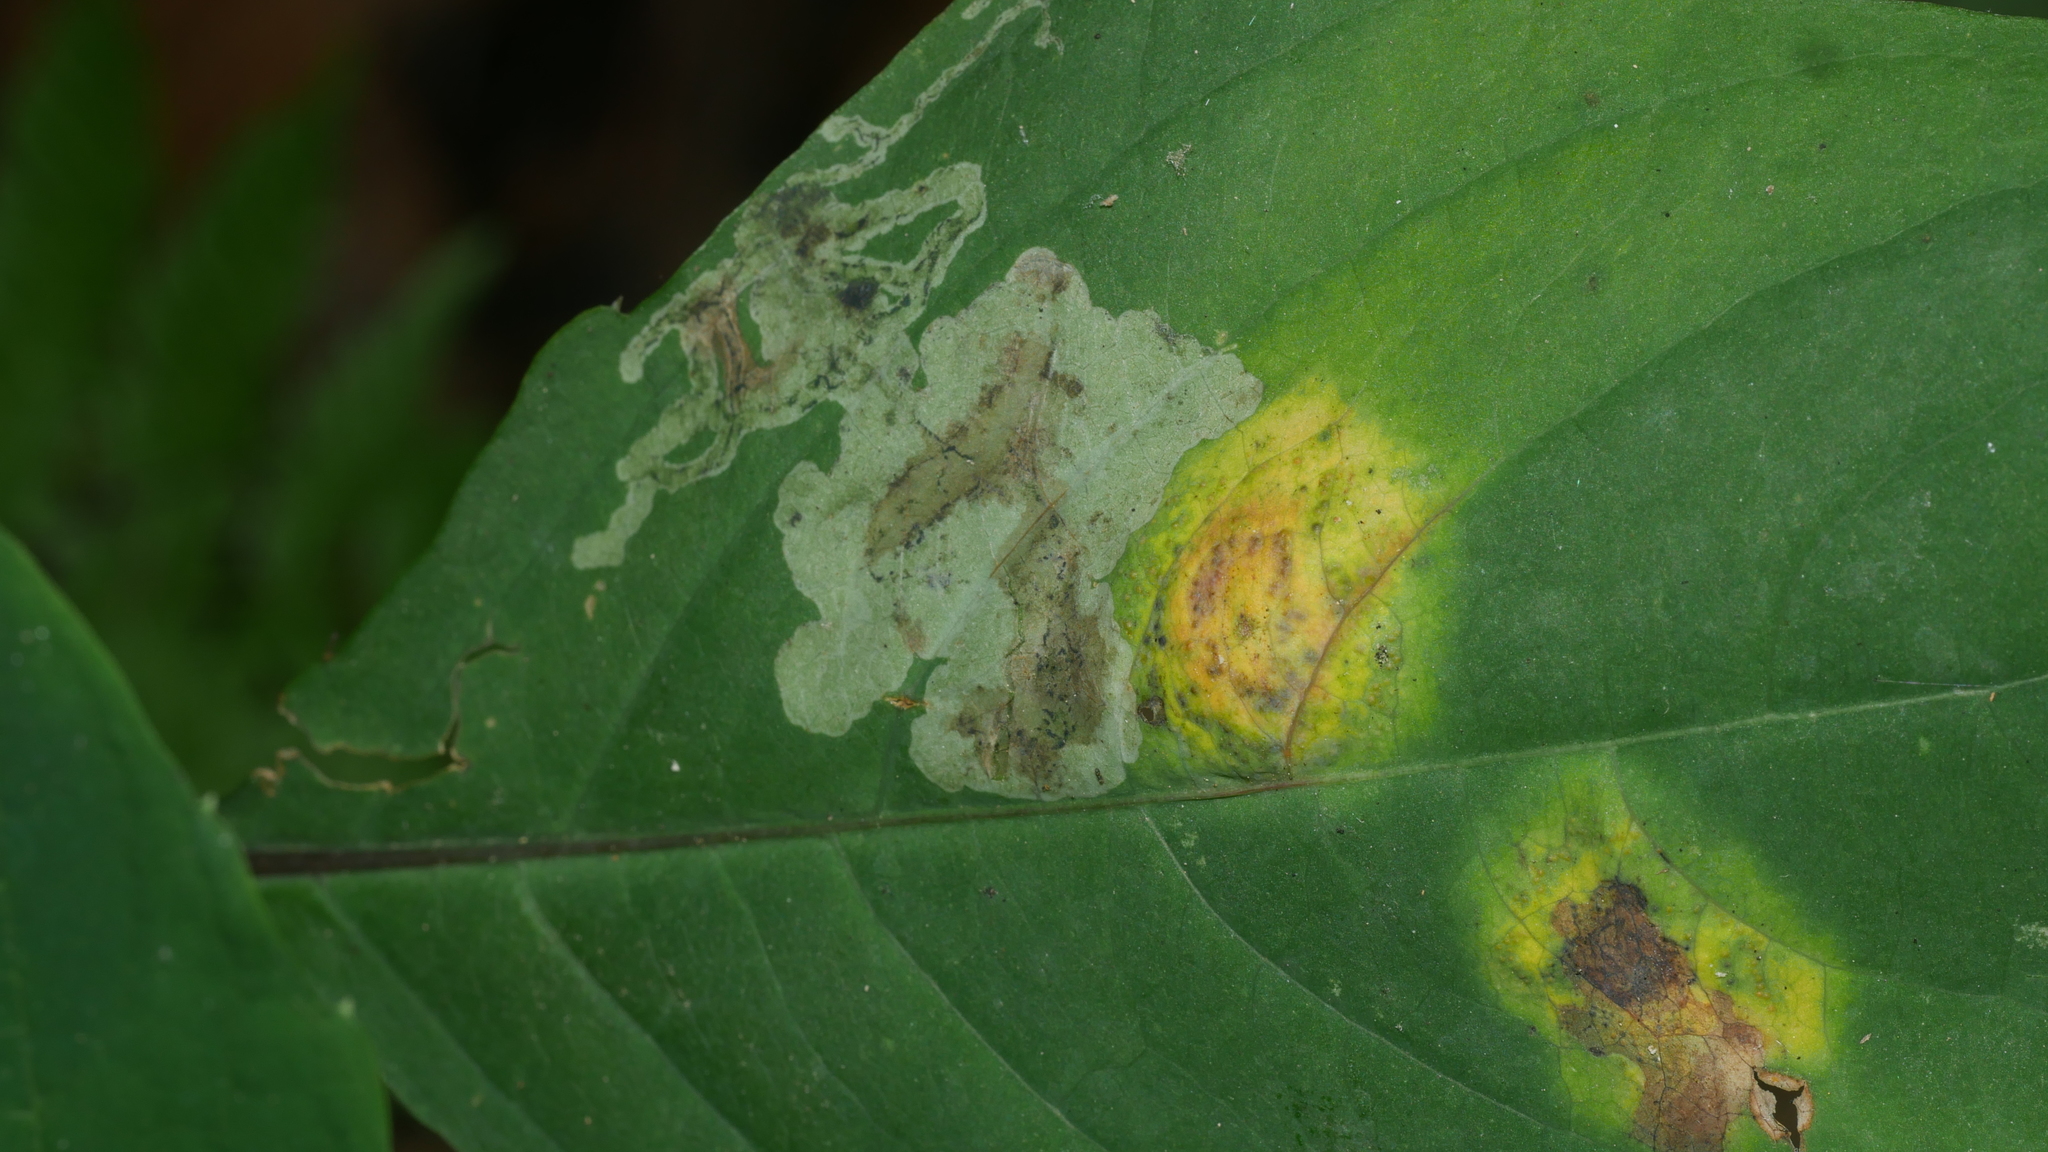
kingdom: Animalia
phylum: Arthropoda
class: Insecta
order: Diptera
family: Agromyzidae
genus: Phytoliriomyza
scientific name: Phytoliriomyza melampyga
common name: Jewelweed leaf-miner fly
